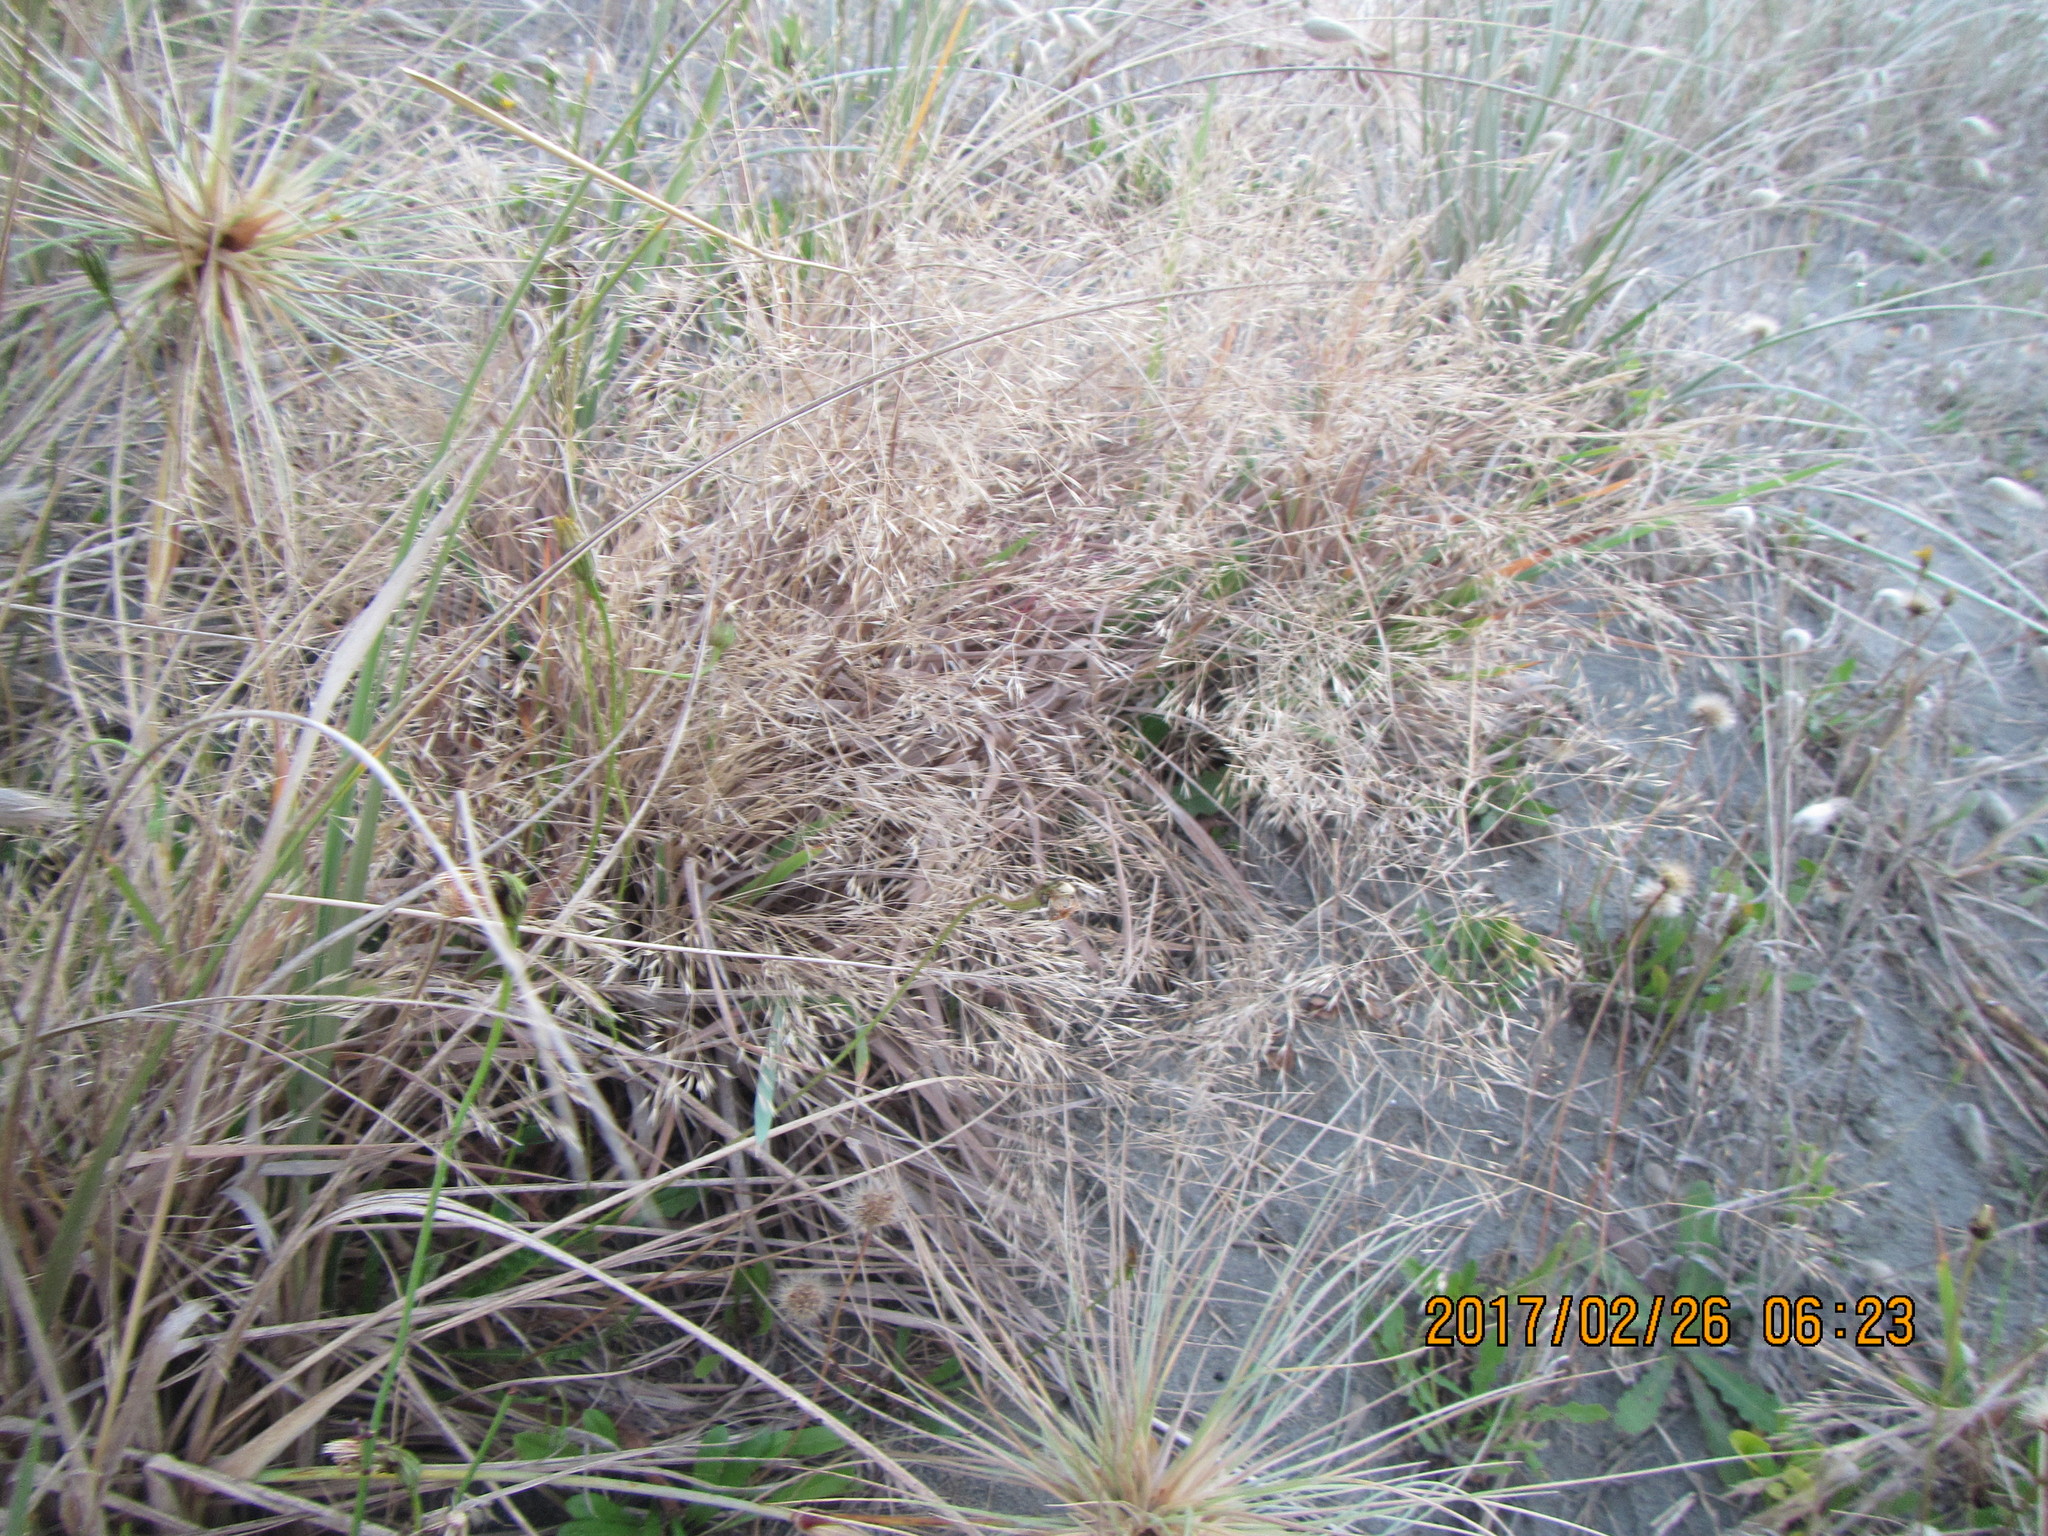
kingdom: Plantae
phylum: Tracheophyta
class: Liliopsida
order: Poales
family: Poaceae
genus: Lachnagrostis
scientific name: Lachnagrostis billardierei
